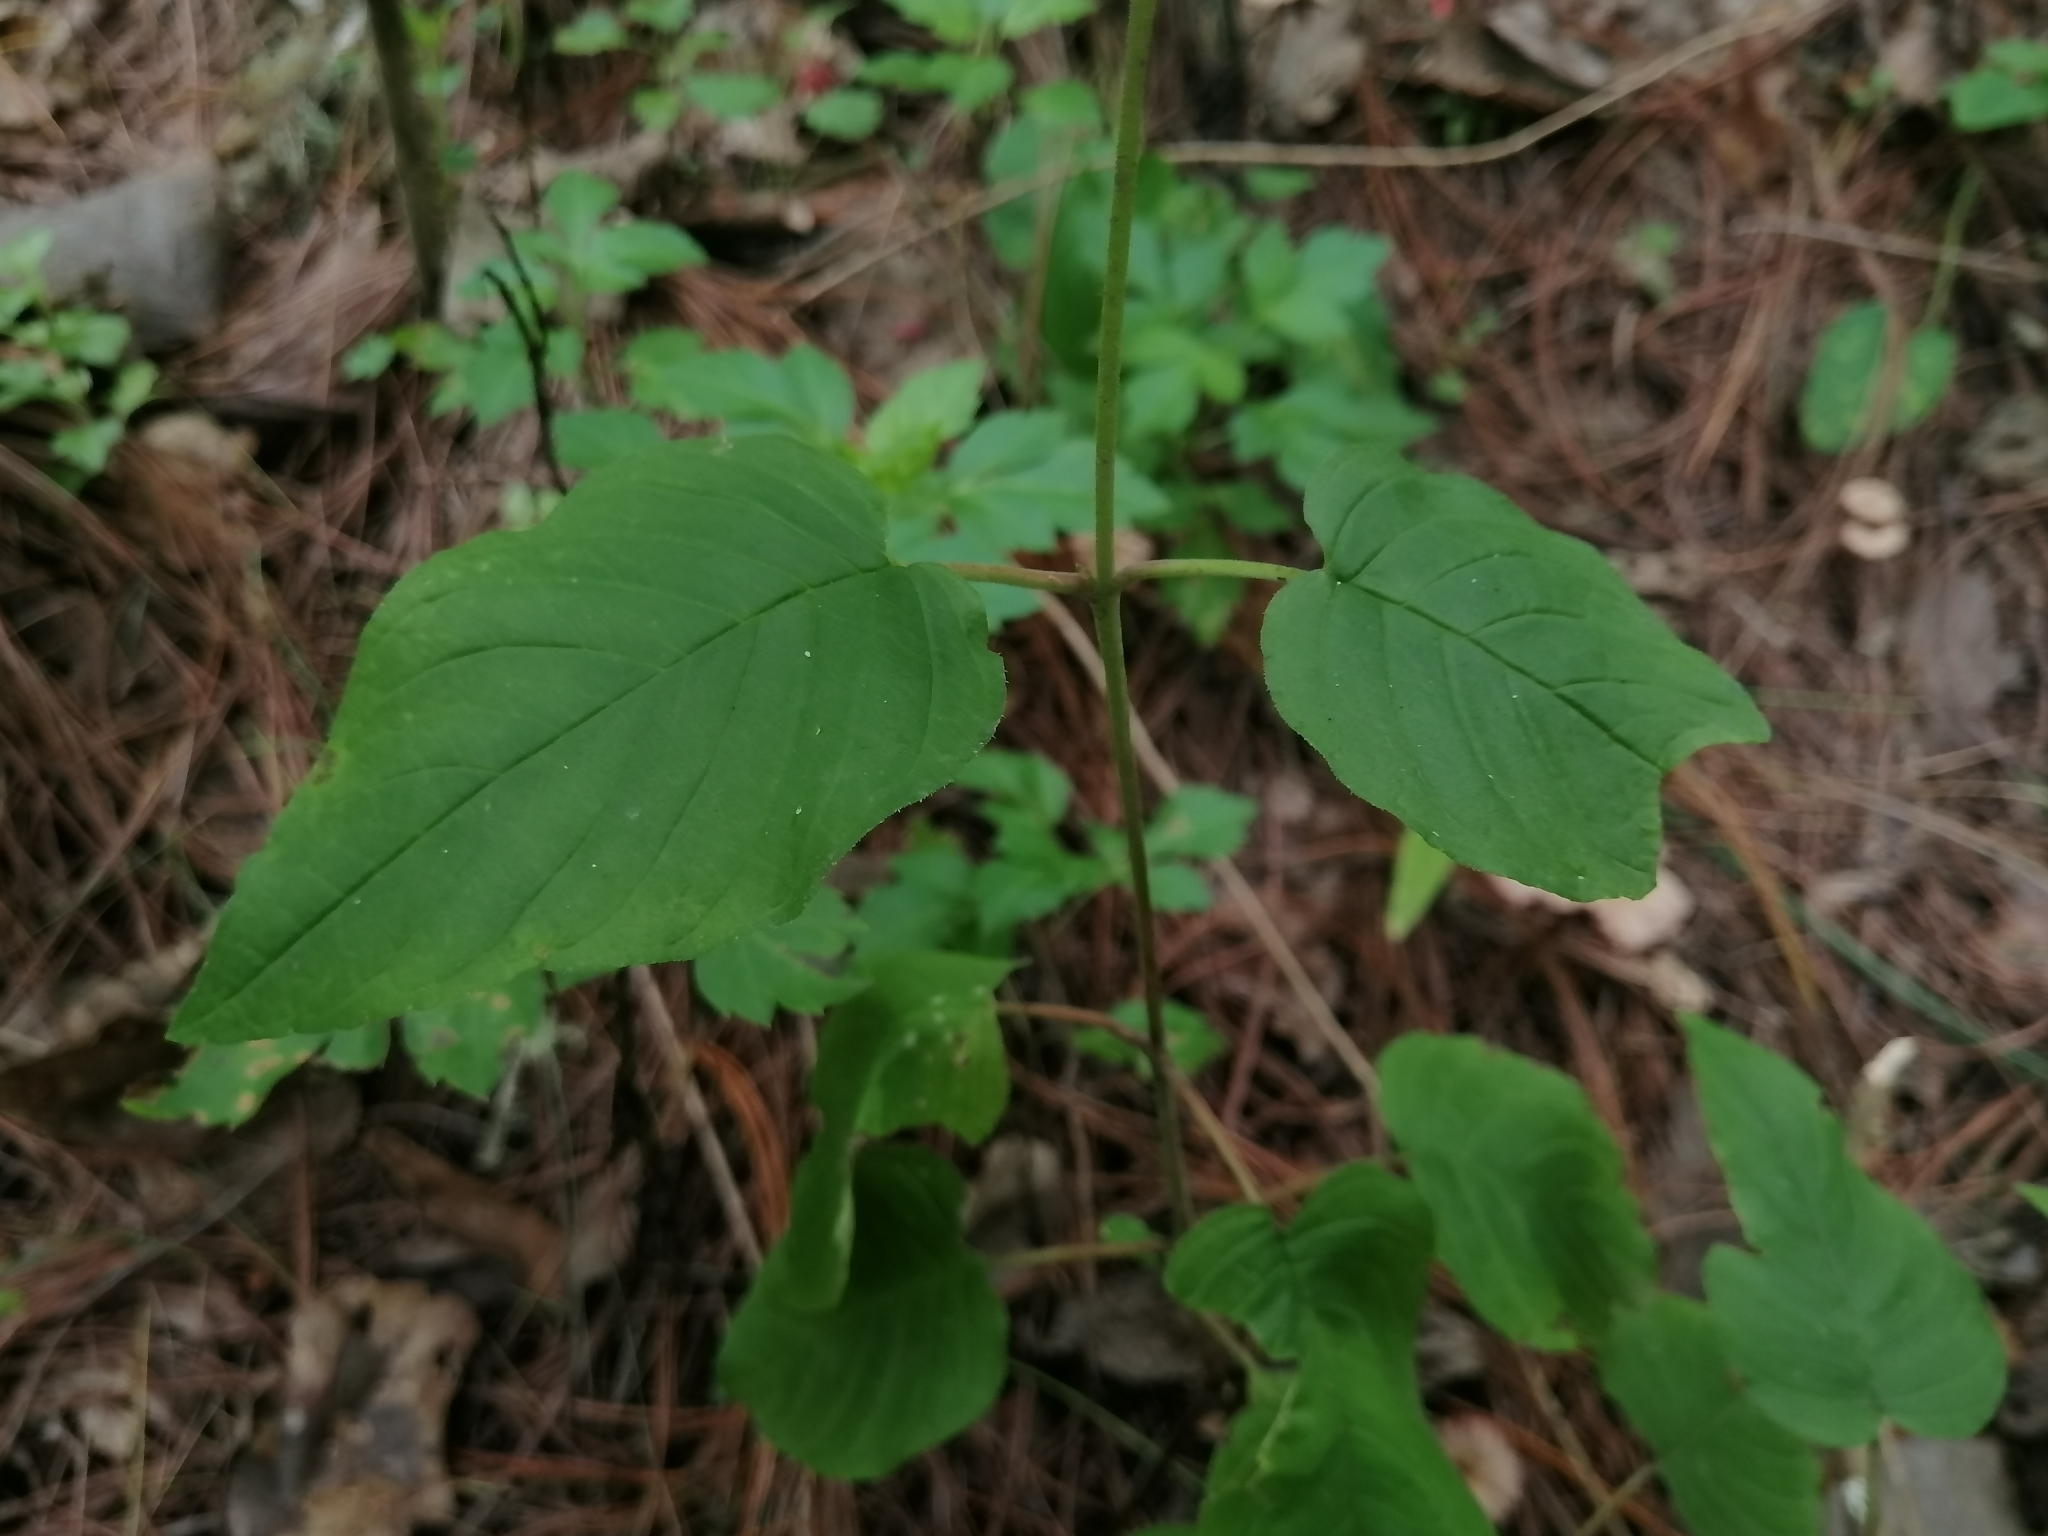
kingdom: Plantae
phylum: Tracheophyta
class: Magnoliopsida
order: Myrtales
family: Lythraceae
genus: Cuphea
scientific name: Cuphea cyanea
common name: Black-eyed cuphea
